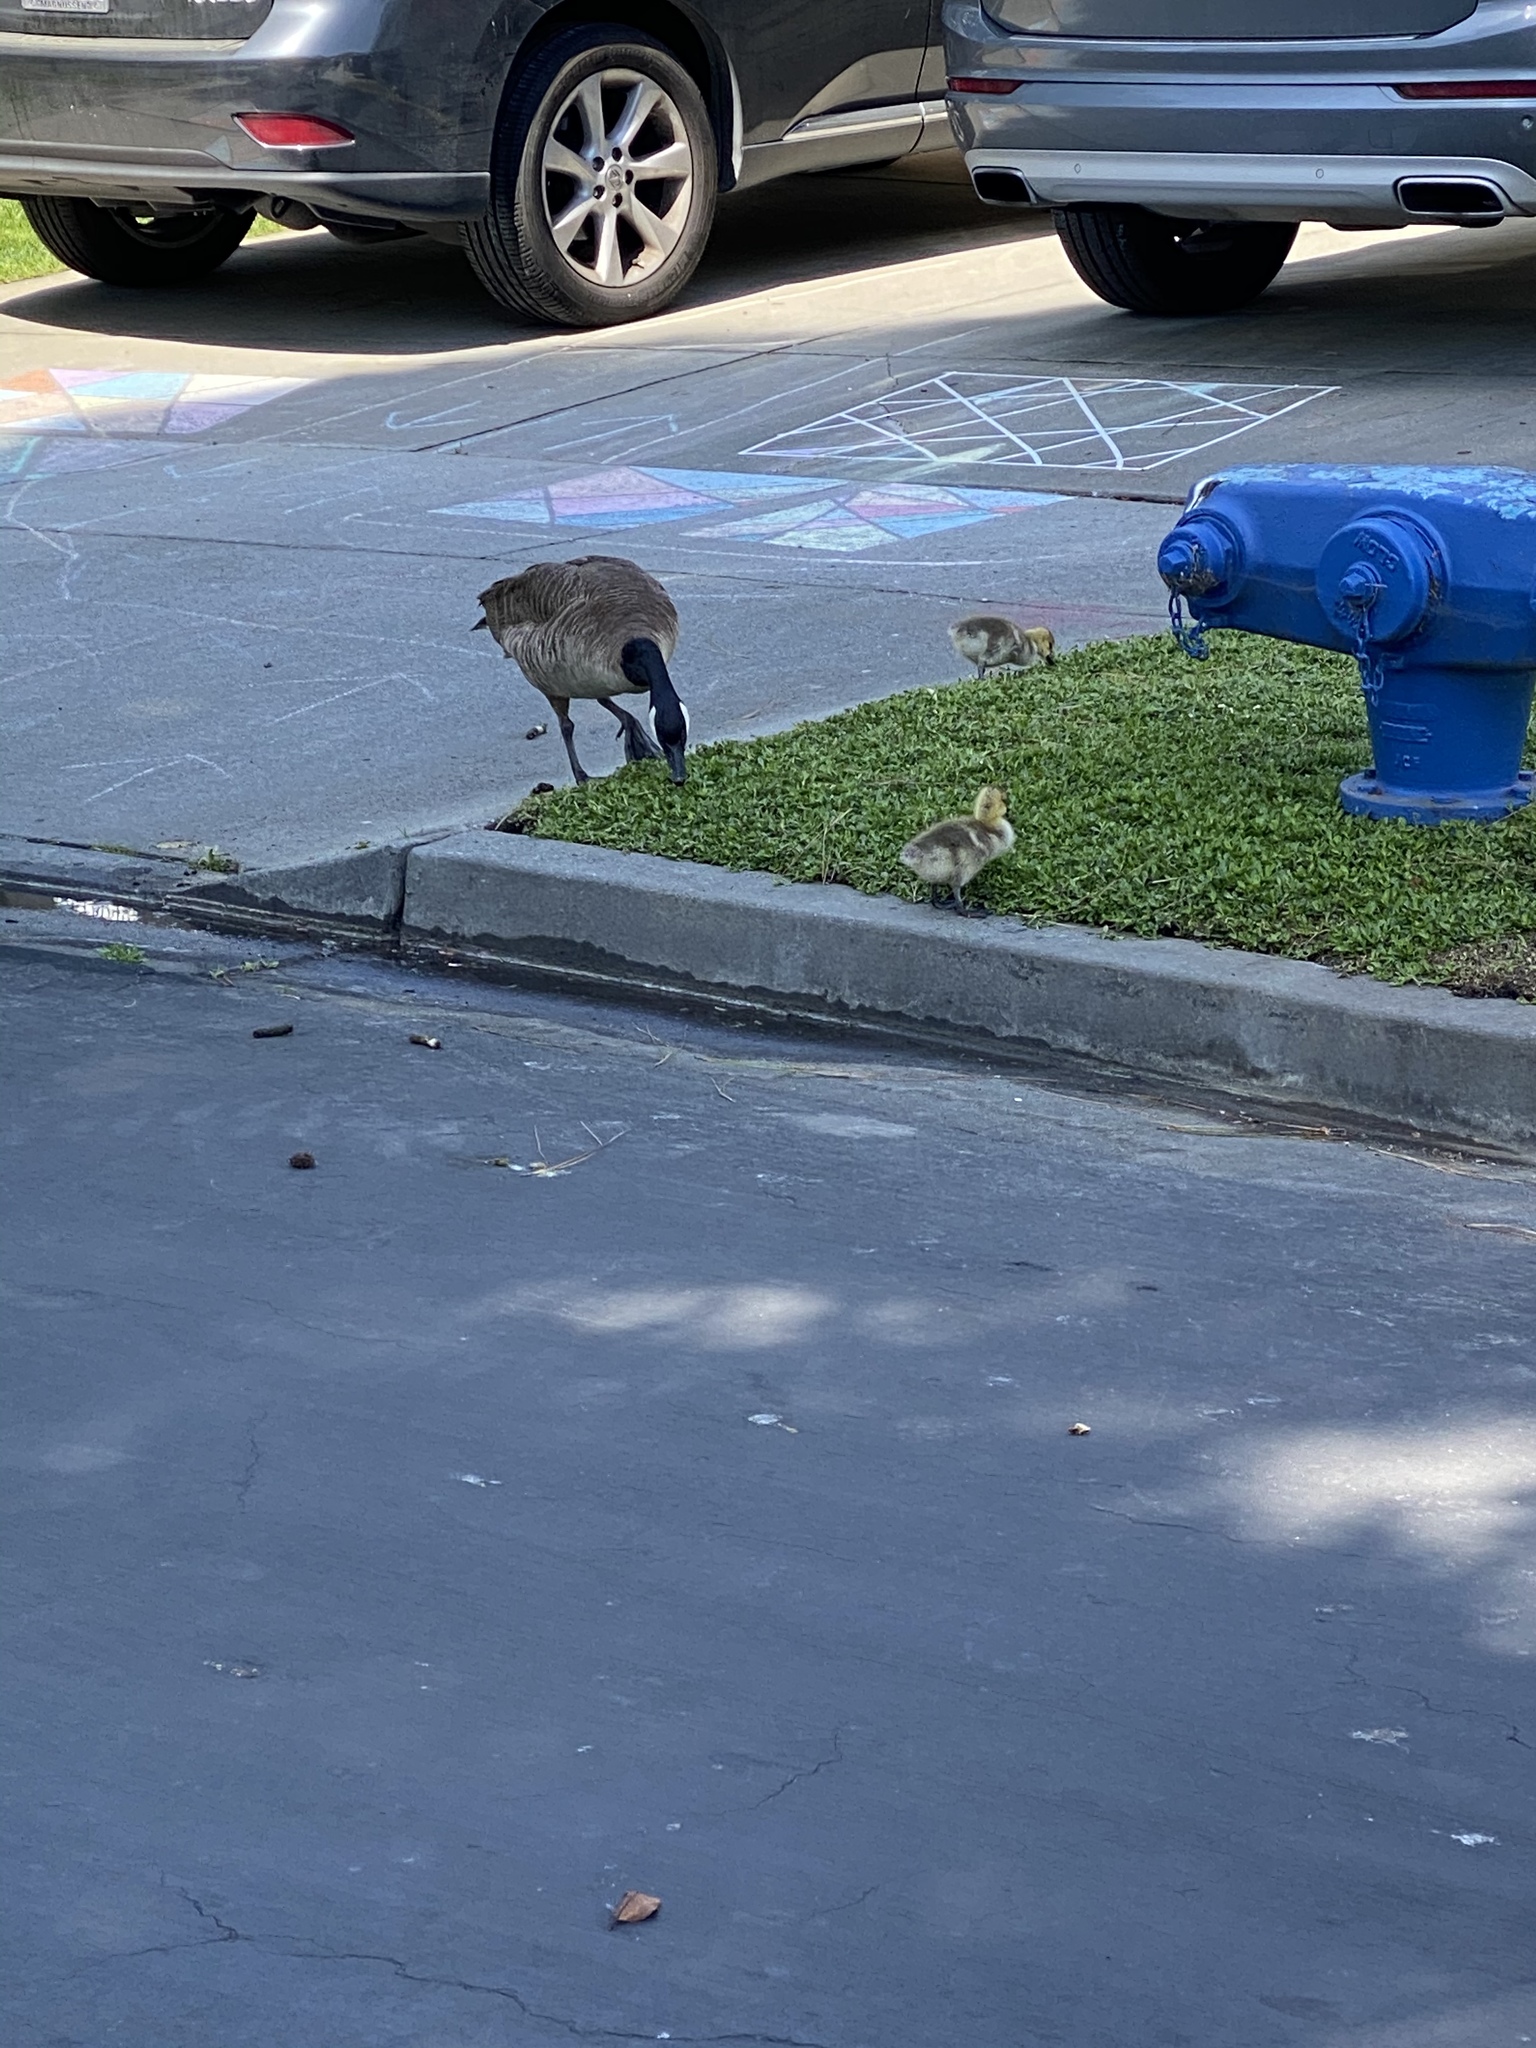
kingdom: Animalia
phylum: Chordata
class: Aves
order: Anseriformes
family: Anatidae
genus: Branta
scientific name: Branta canadensis
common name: Canada goose
